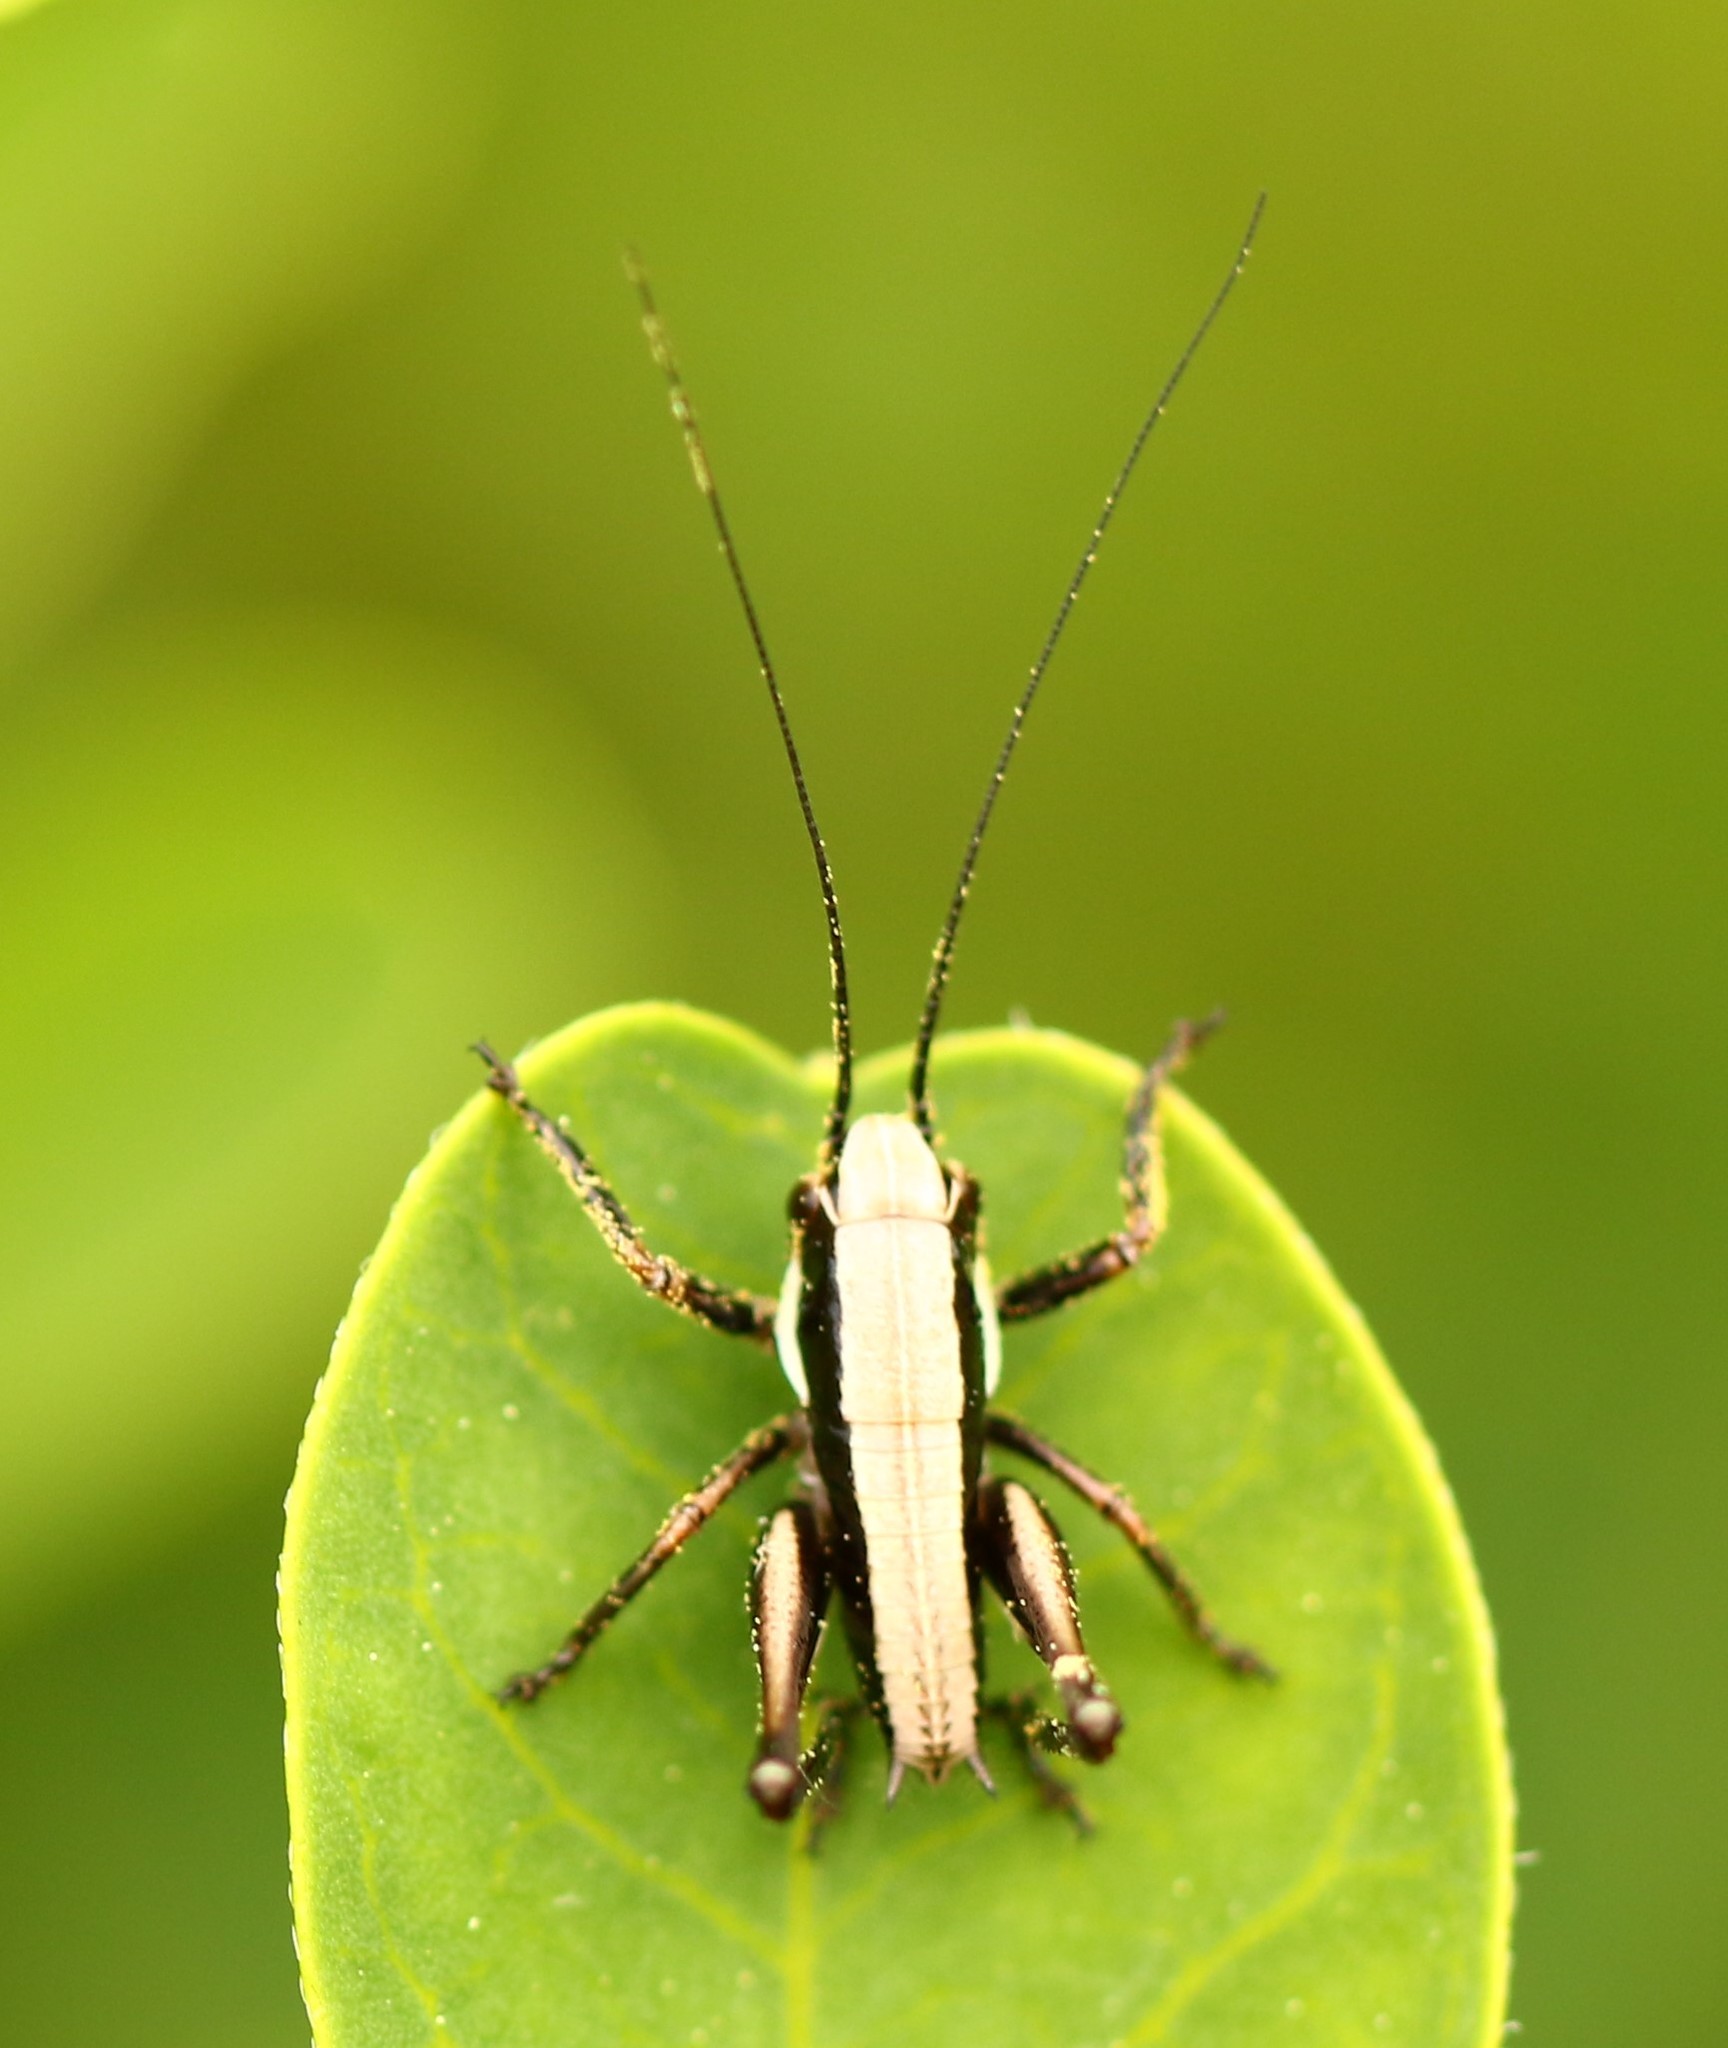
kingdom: Animalia
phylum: Arthropoda
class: Insecta
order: Orthoptera
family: Tettigoniidae
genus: Pholidoptera
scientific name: Pholidoptera fallax
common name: Fischer's bush-cricket
